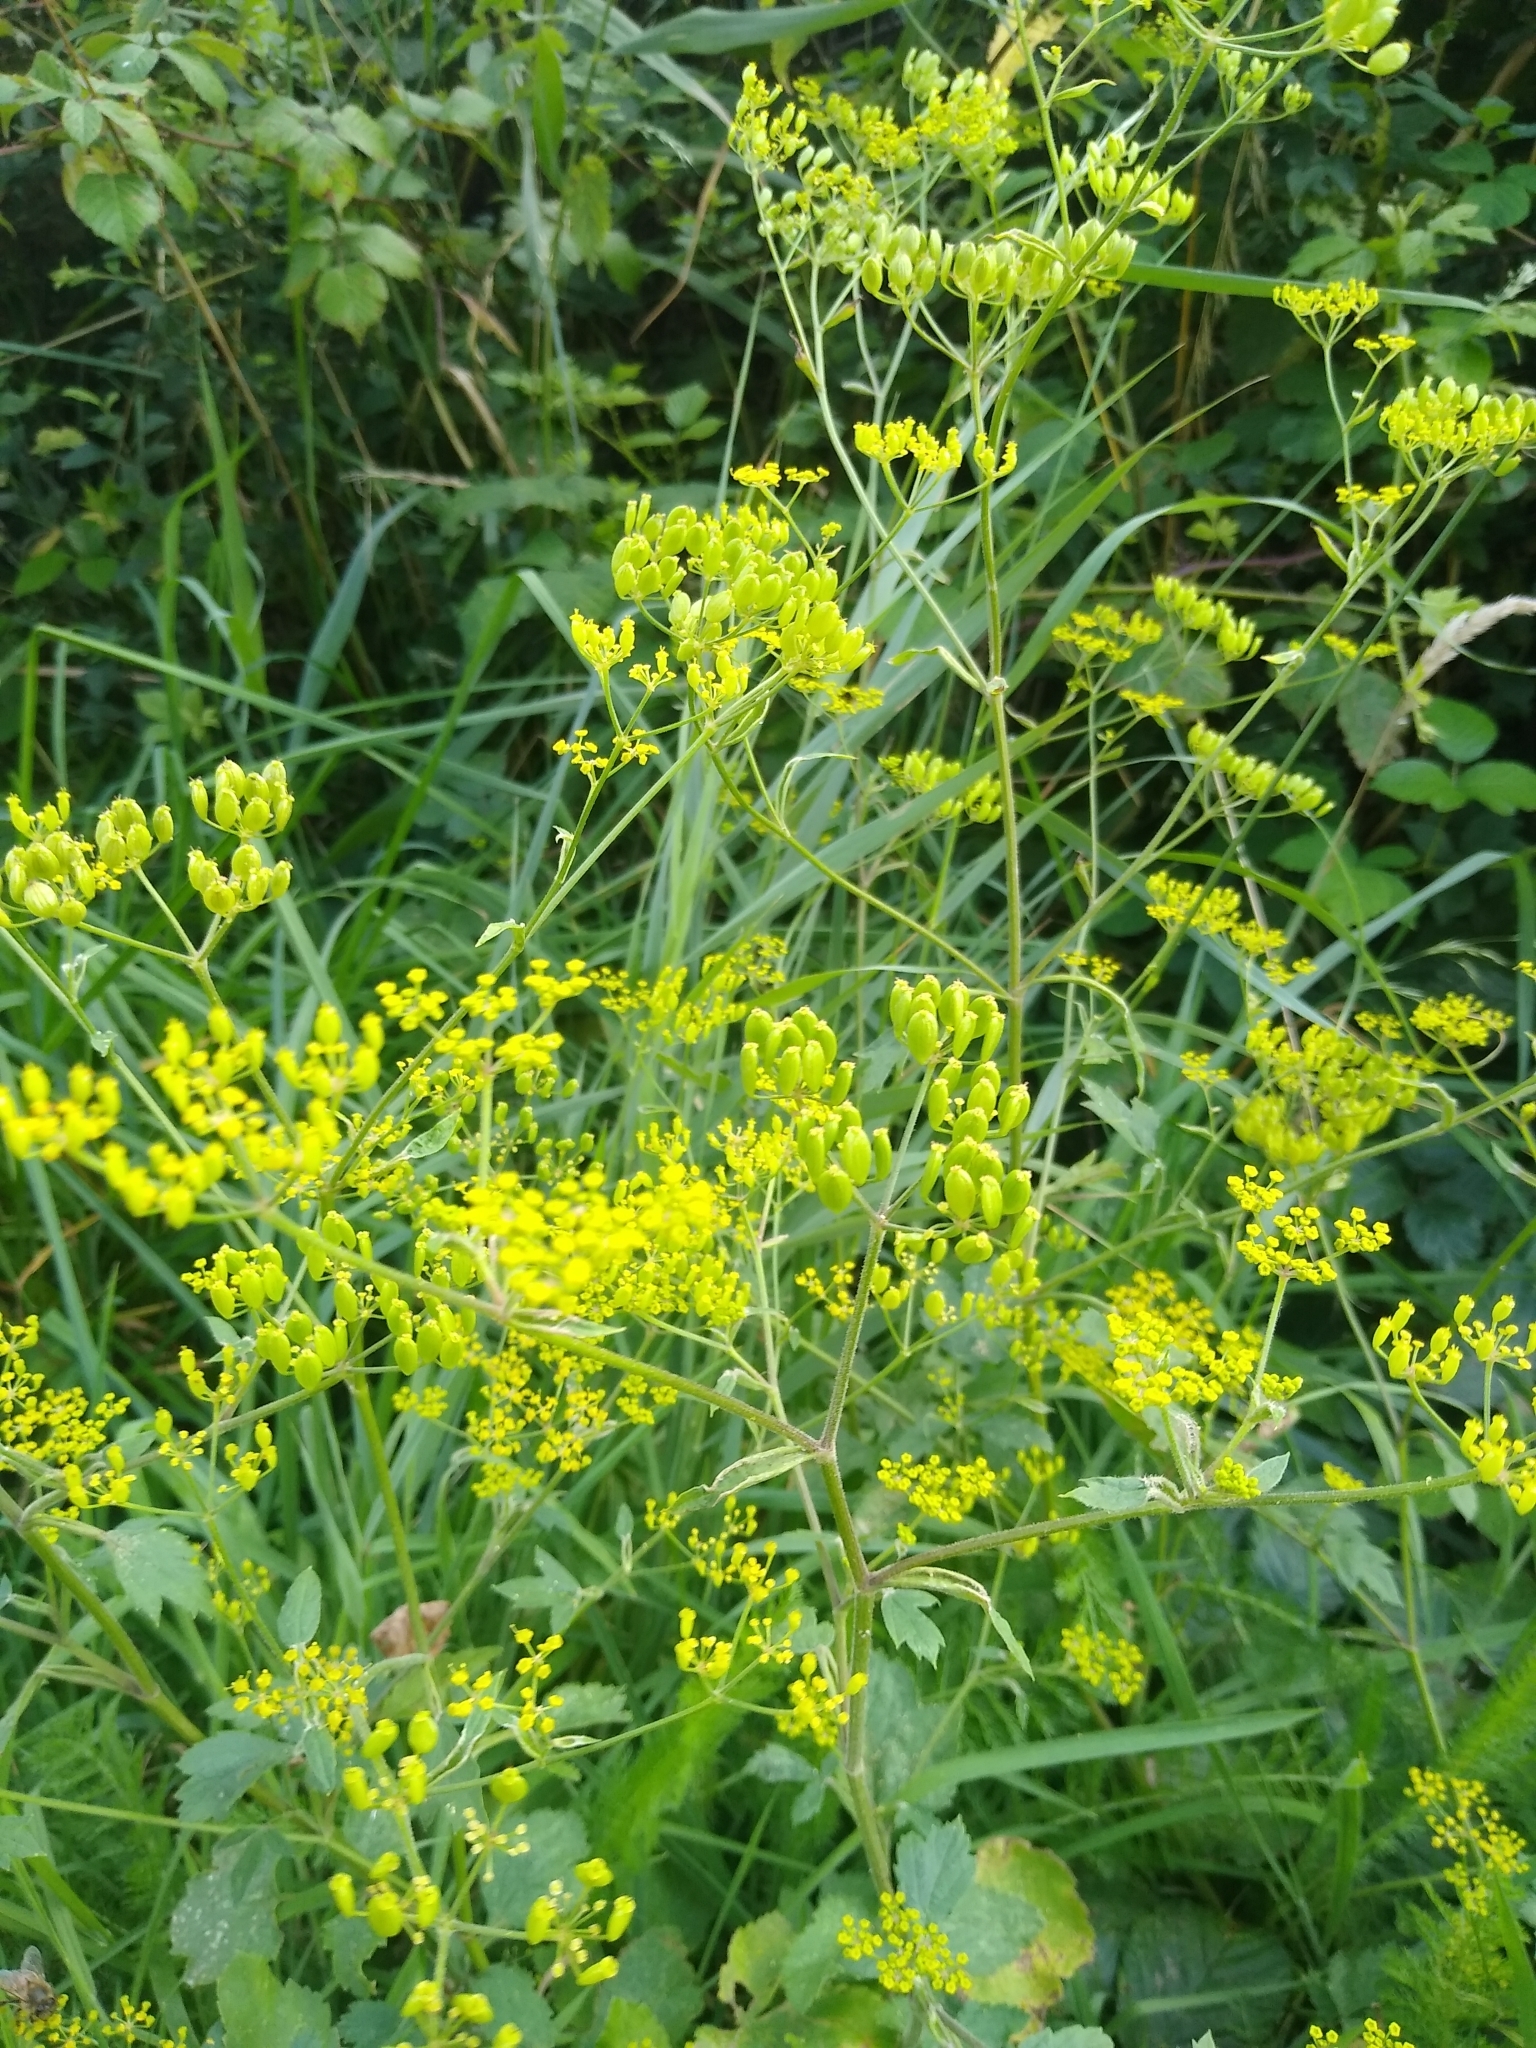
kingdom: Plantae
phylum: Tracheophyta
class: Magnoliopsida
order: Apiales
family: Apiaceae
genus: Pastinaca
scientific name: Pastinaca sativa
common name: Wild parsnip
